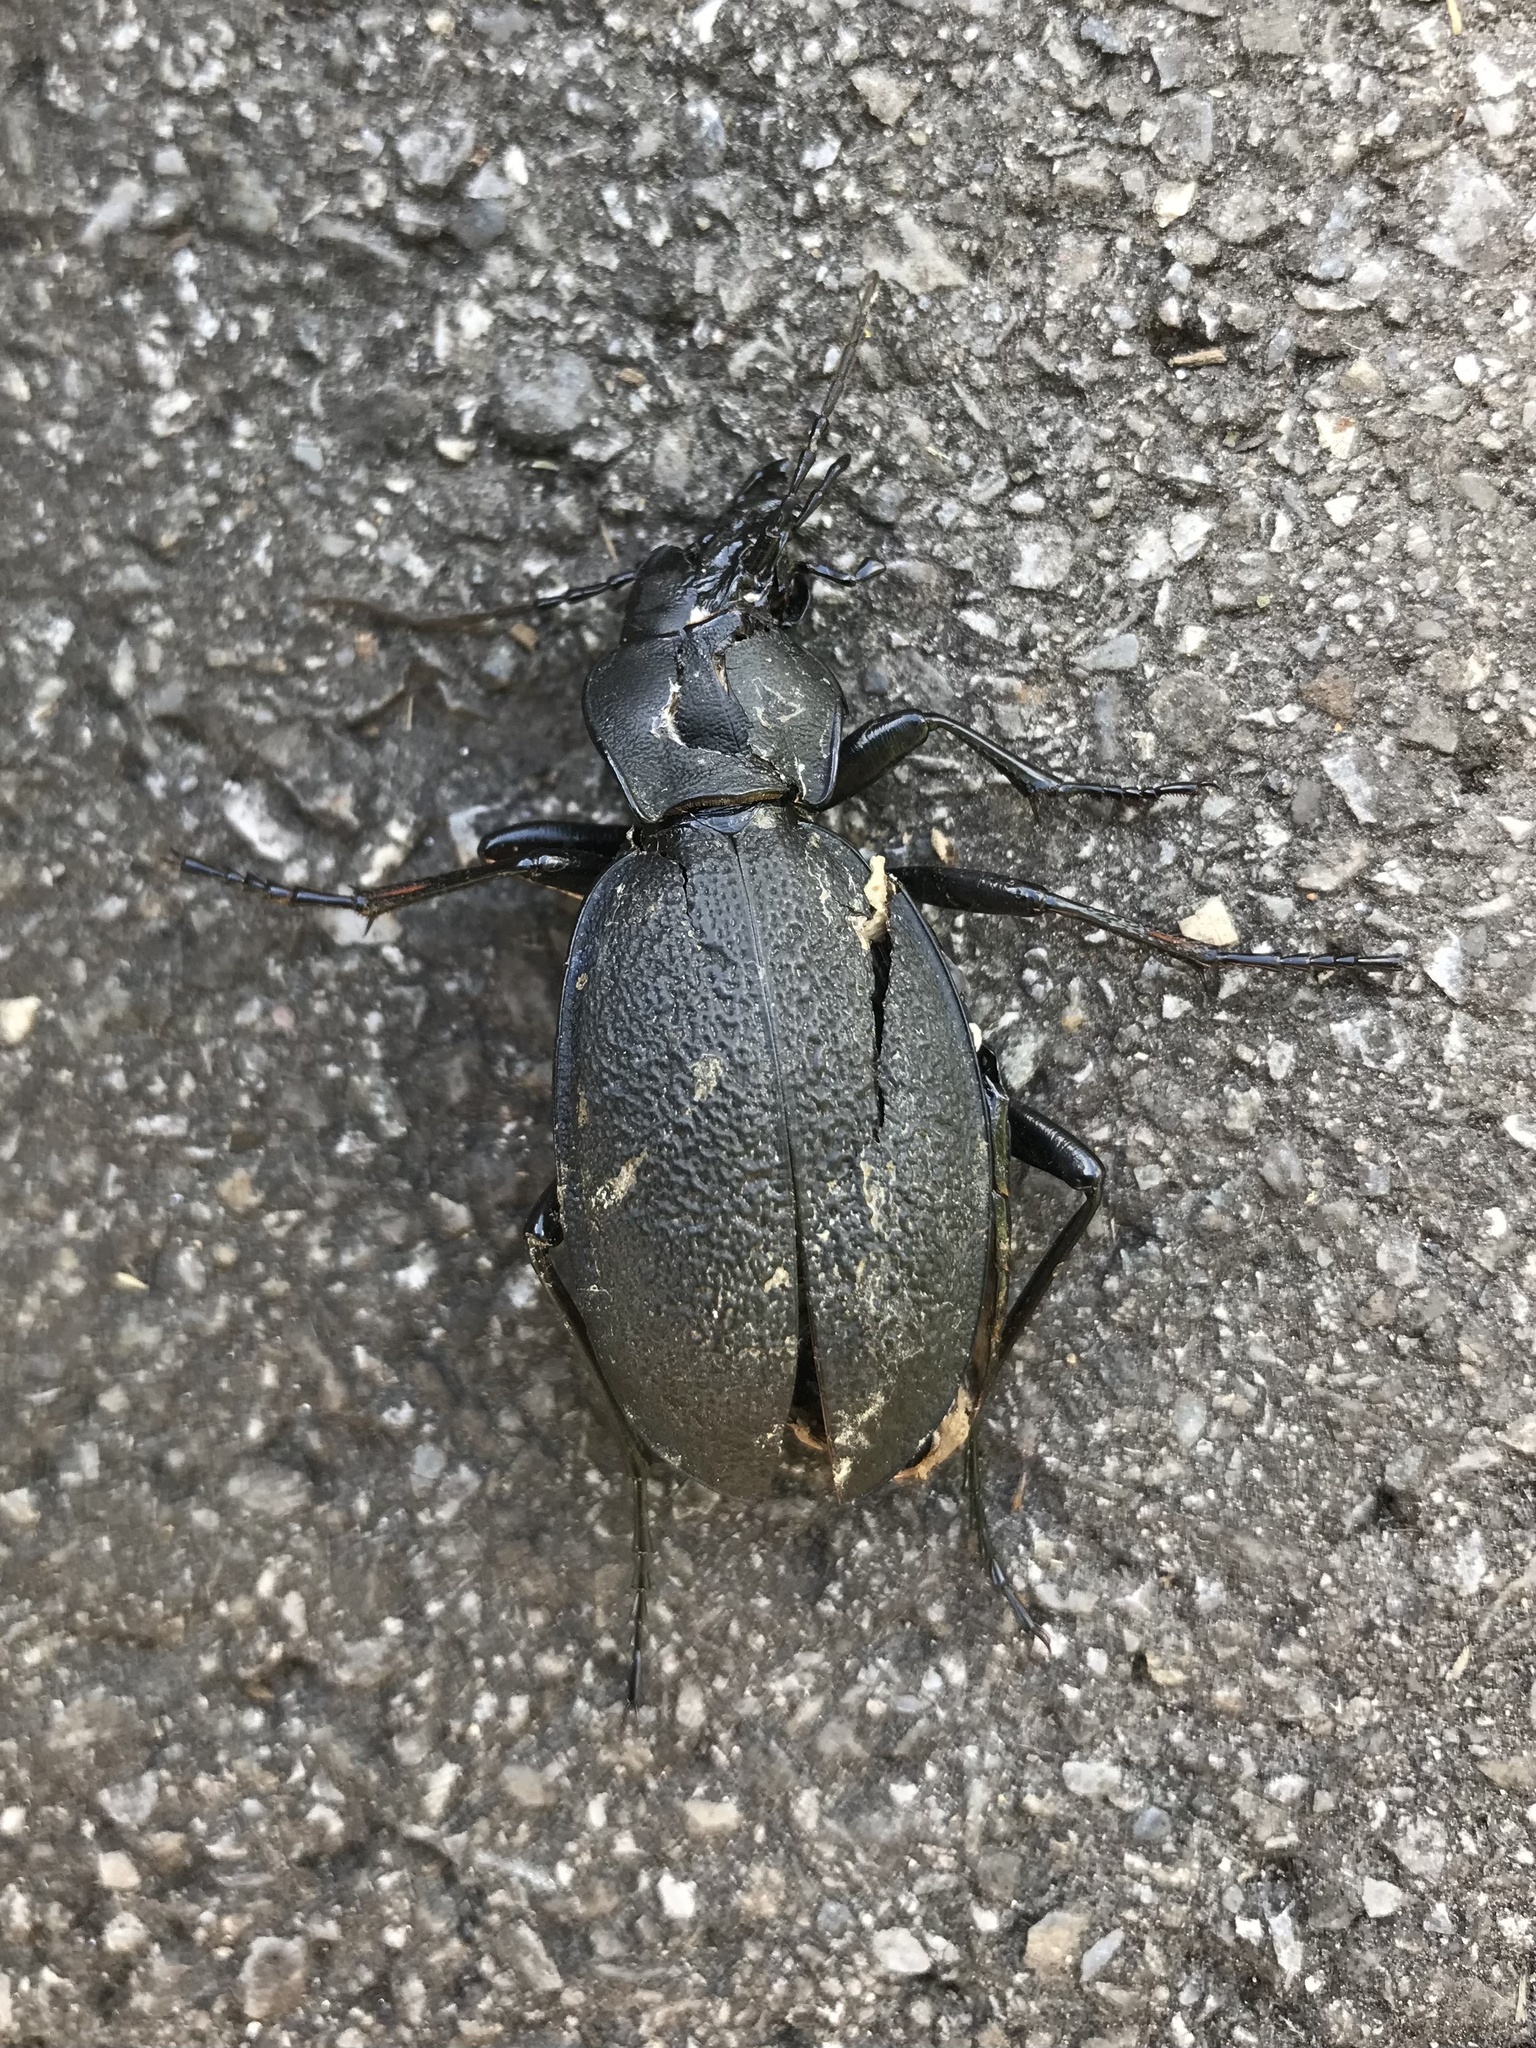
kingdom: Animalia
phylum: Arthropoda
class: Insecta
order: Coleoptera
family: Carabidae
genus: Carabus
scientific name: Carabus coriaceus
